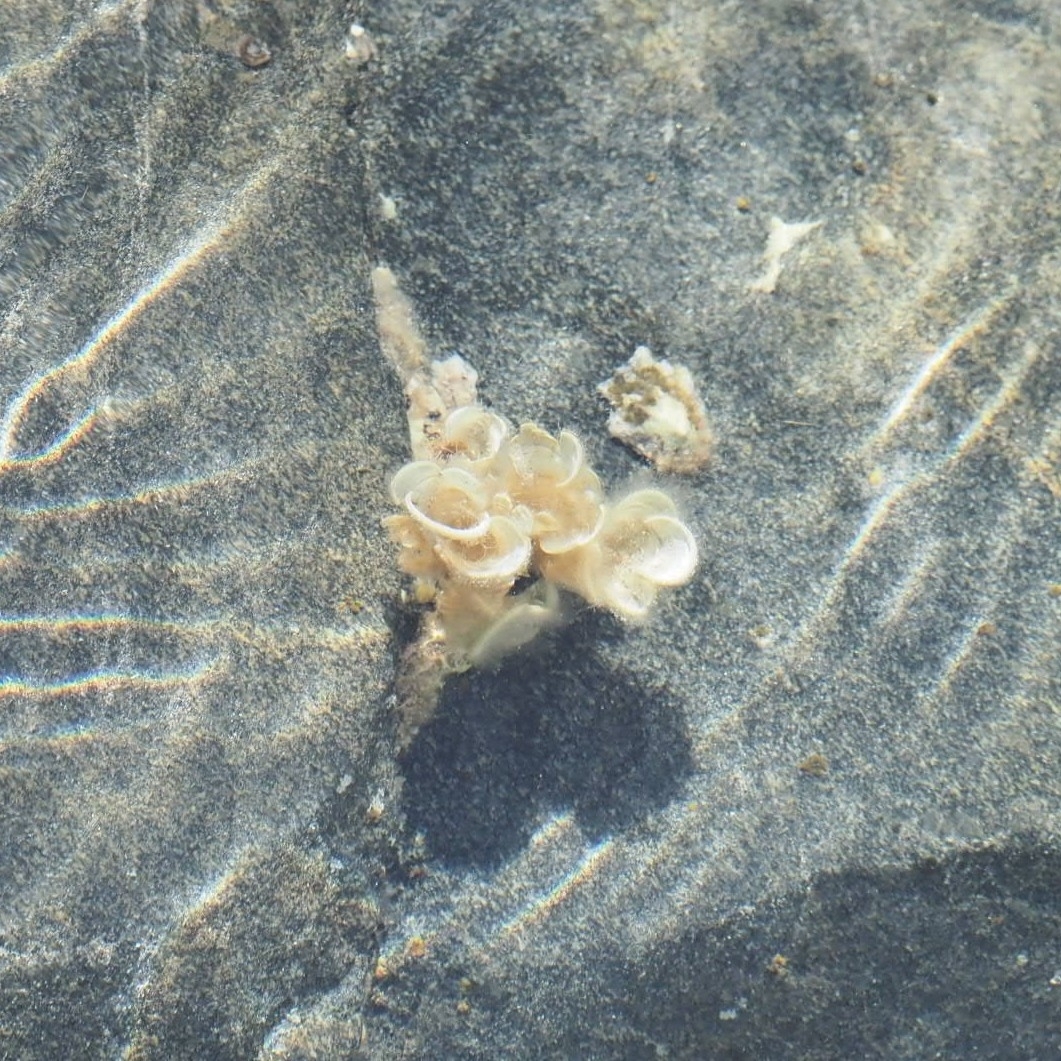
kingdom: Chromista
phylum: Ochrophyta
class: Phaeophyceae
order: Dictyotales
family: Dictyotaceae
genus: Padina
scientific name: Padina pavonica
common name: Turkey feather alga
